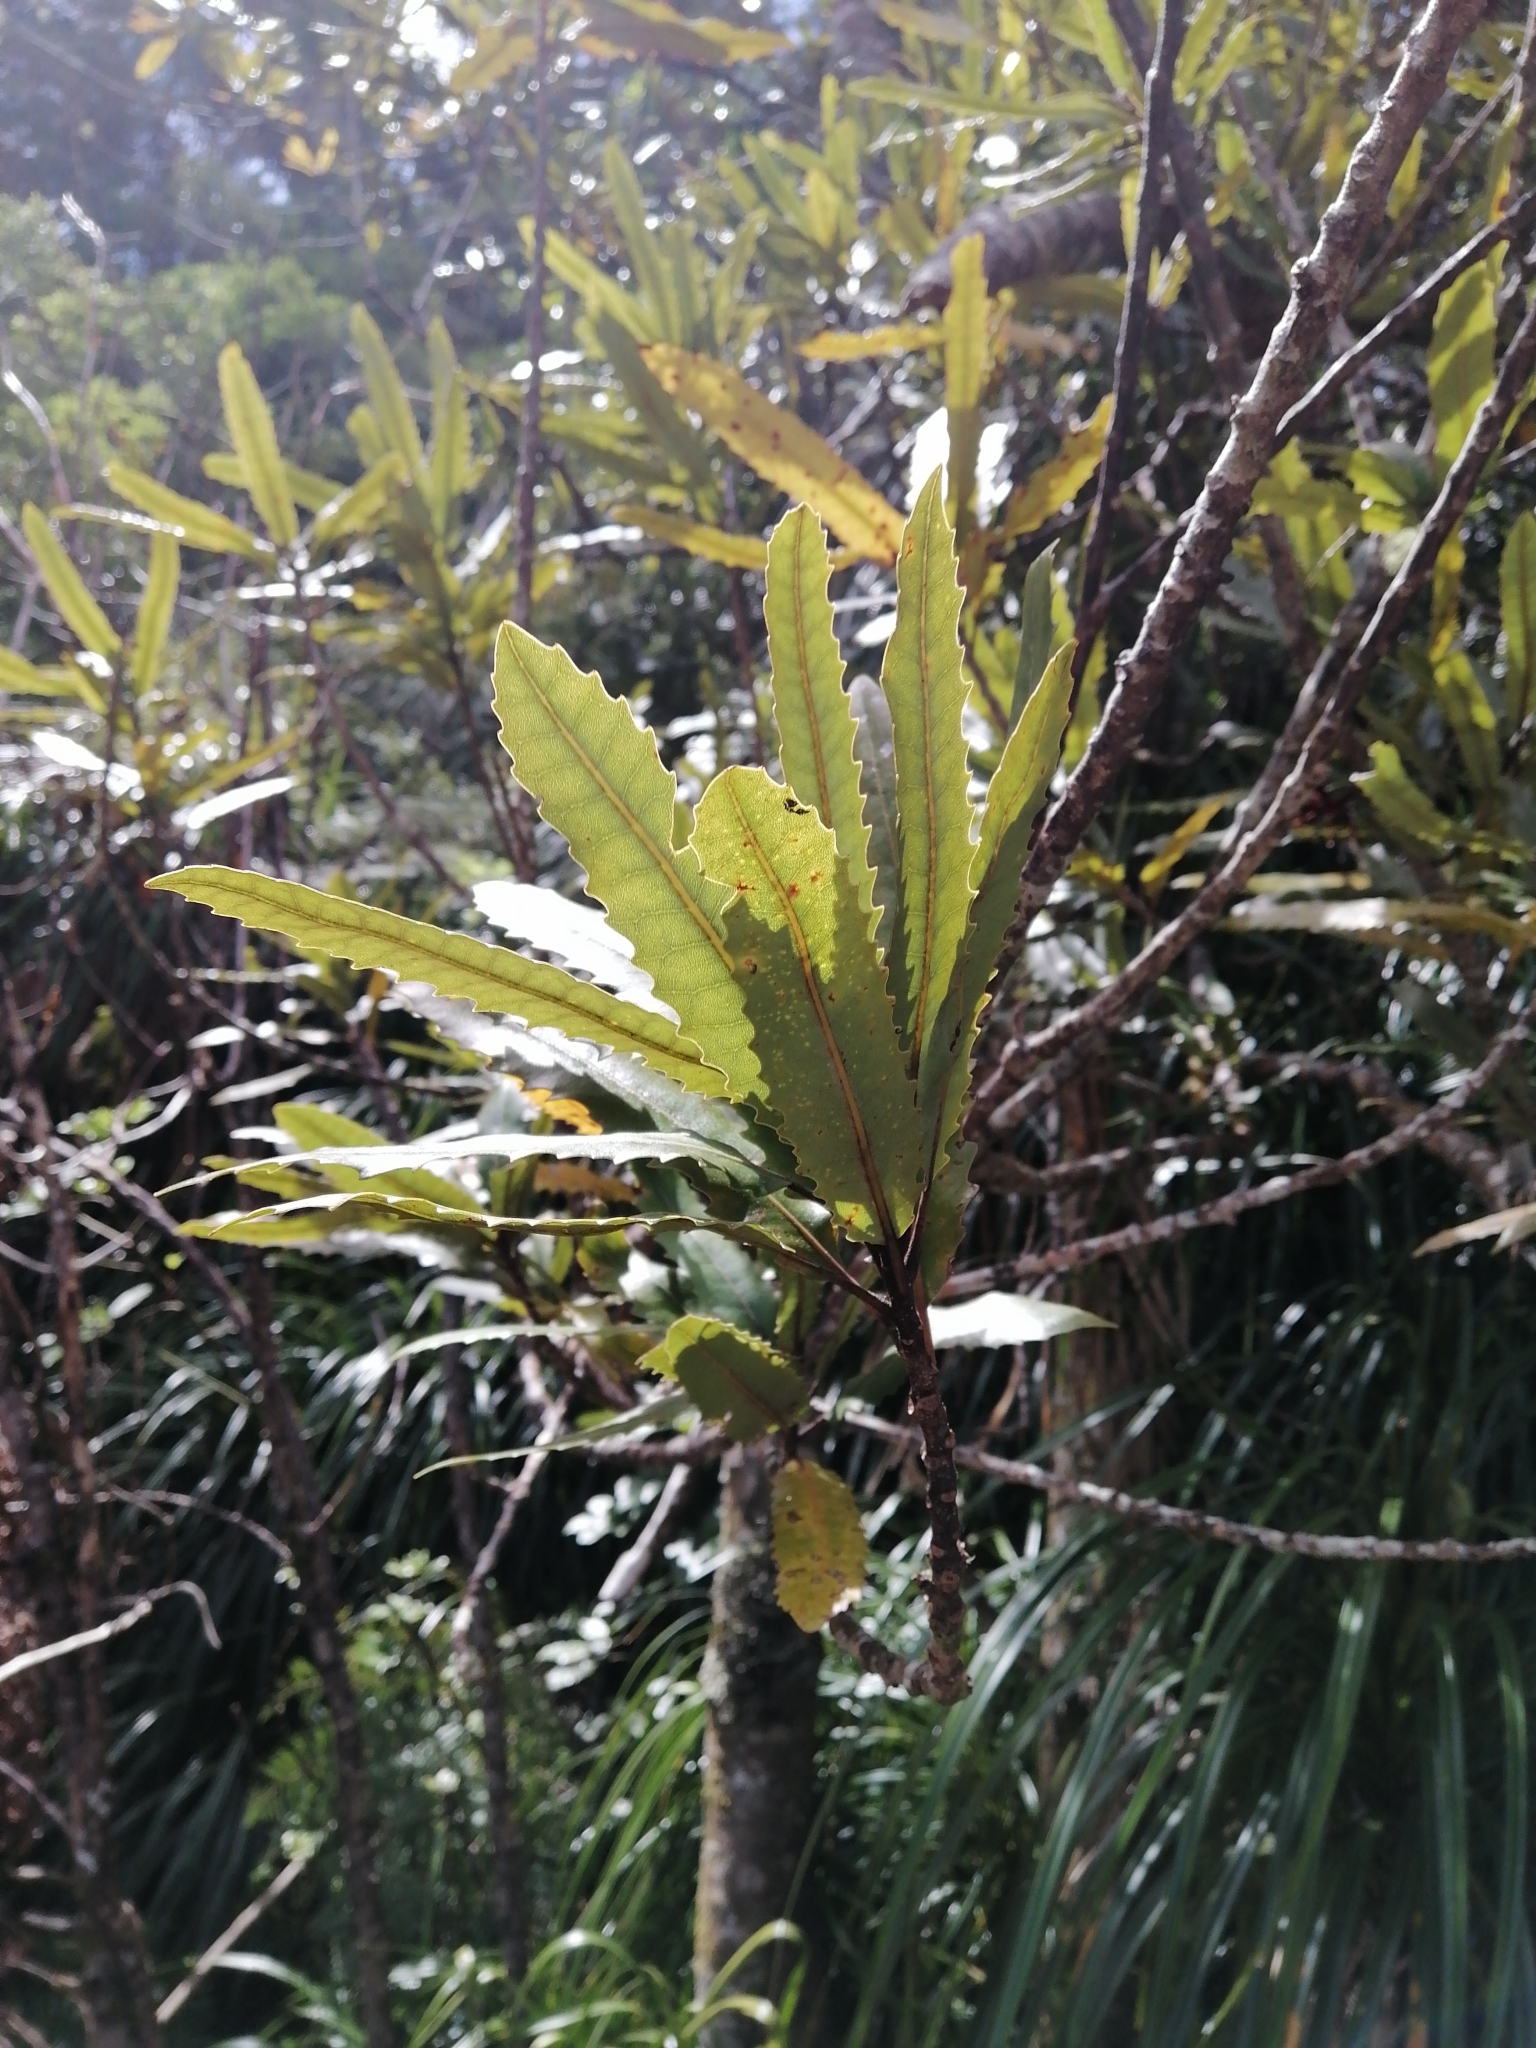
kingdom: Plantae
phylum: Tracheophyta
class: Magnoliopsida
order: Proteales
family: Proteaceae
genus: Knightia
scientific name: Knightia excelsa
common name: New zealand-honeysuckle
